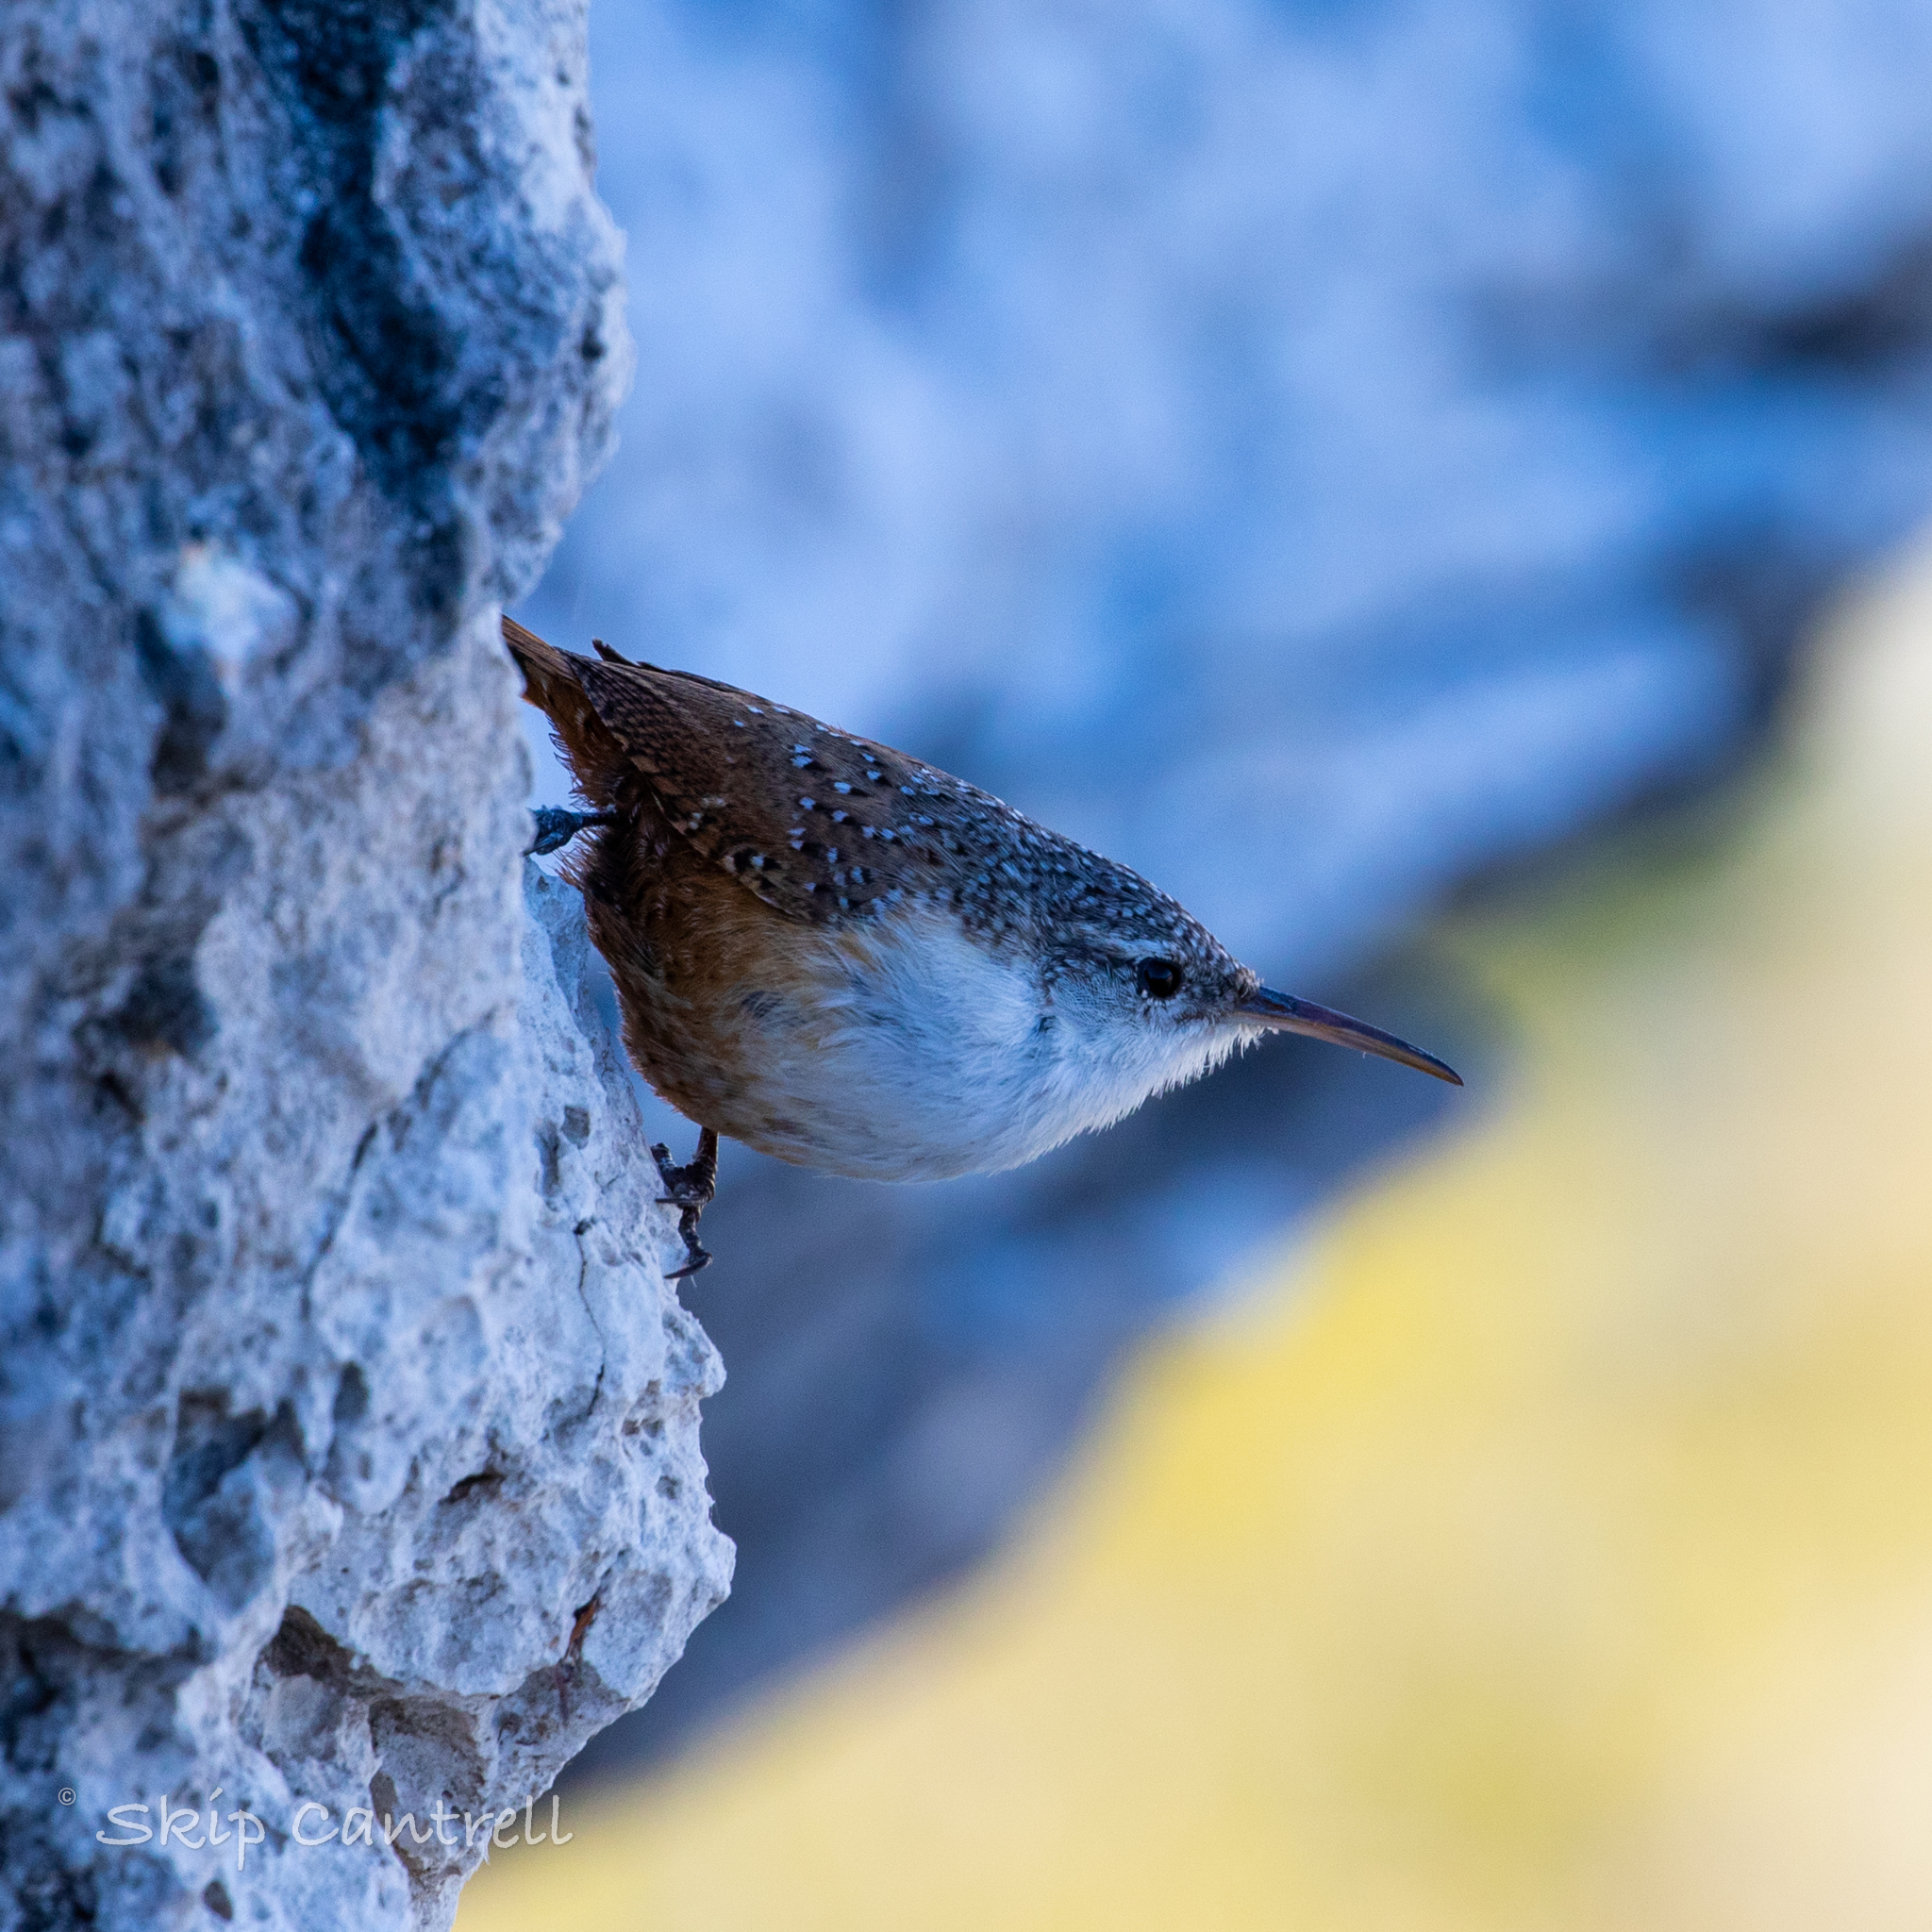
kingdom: Animalia
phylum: Chordata
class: Aves
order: Passeriformes
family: Troglodytidae
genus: Catherpes
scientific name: Catherpes mexicanus
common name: Canyon wren
